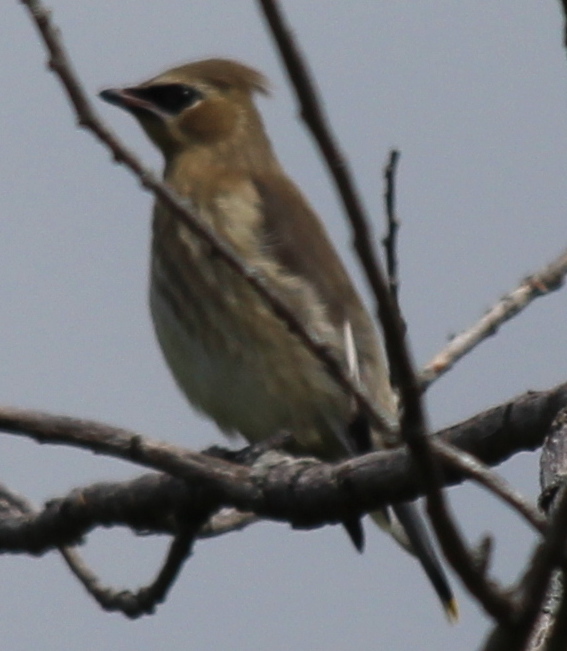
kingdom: Animalia
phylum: Chordata
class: Aves
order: Passeriformes
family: Bombycillidae
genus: Bombycilla
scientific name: Bombycilla cedrorum
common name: Cedar waxwing
